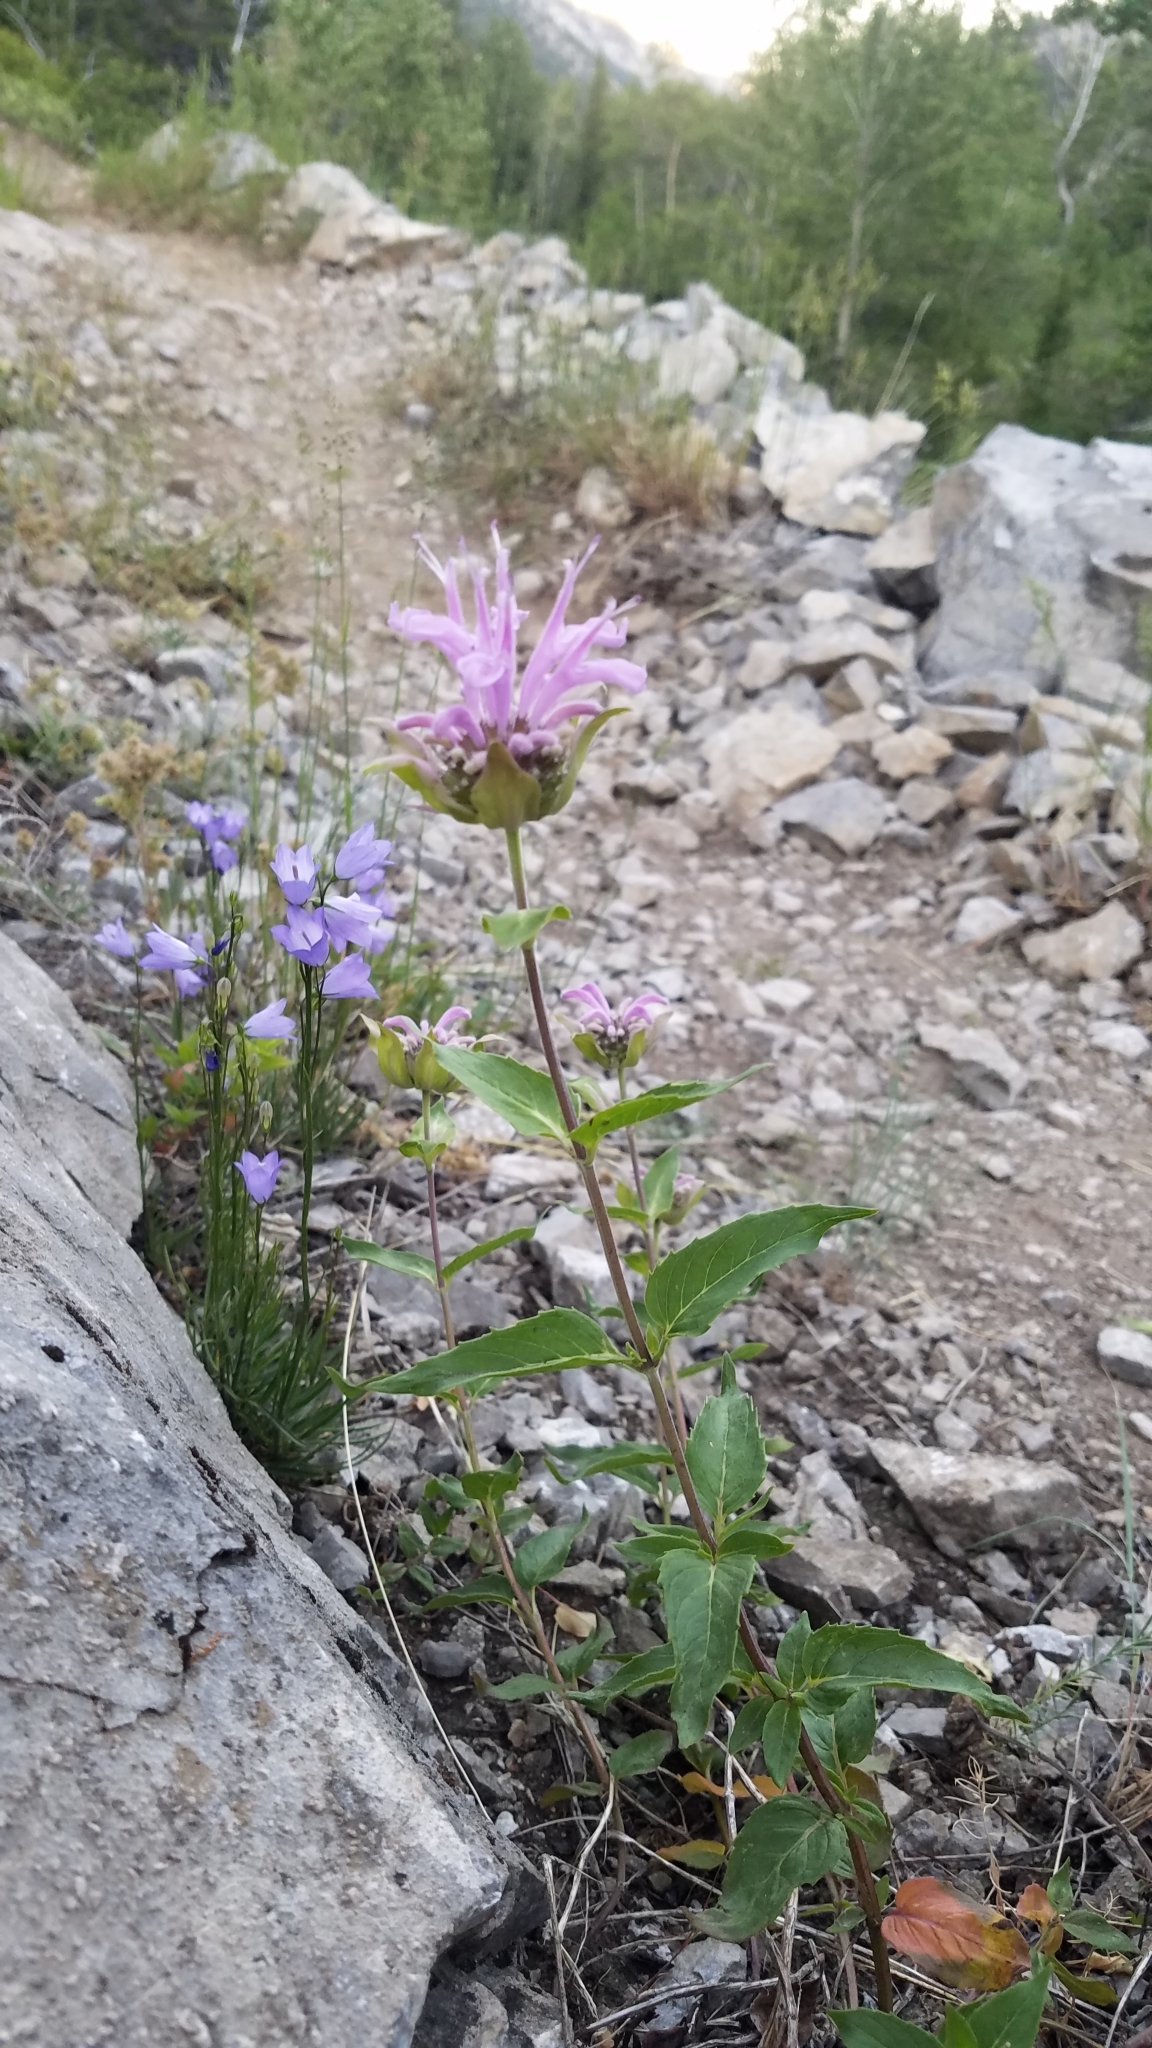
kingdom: Plantae
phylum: Tracheophyta
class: Magnoliopsida
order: Lamiales
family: Lamiaceae
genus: Monarda
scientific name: Monarda fistulosa
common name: Purple beebalm
